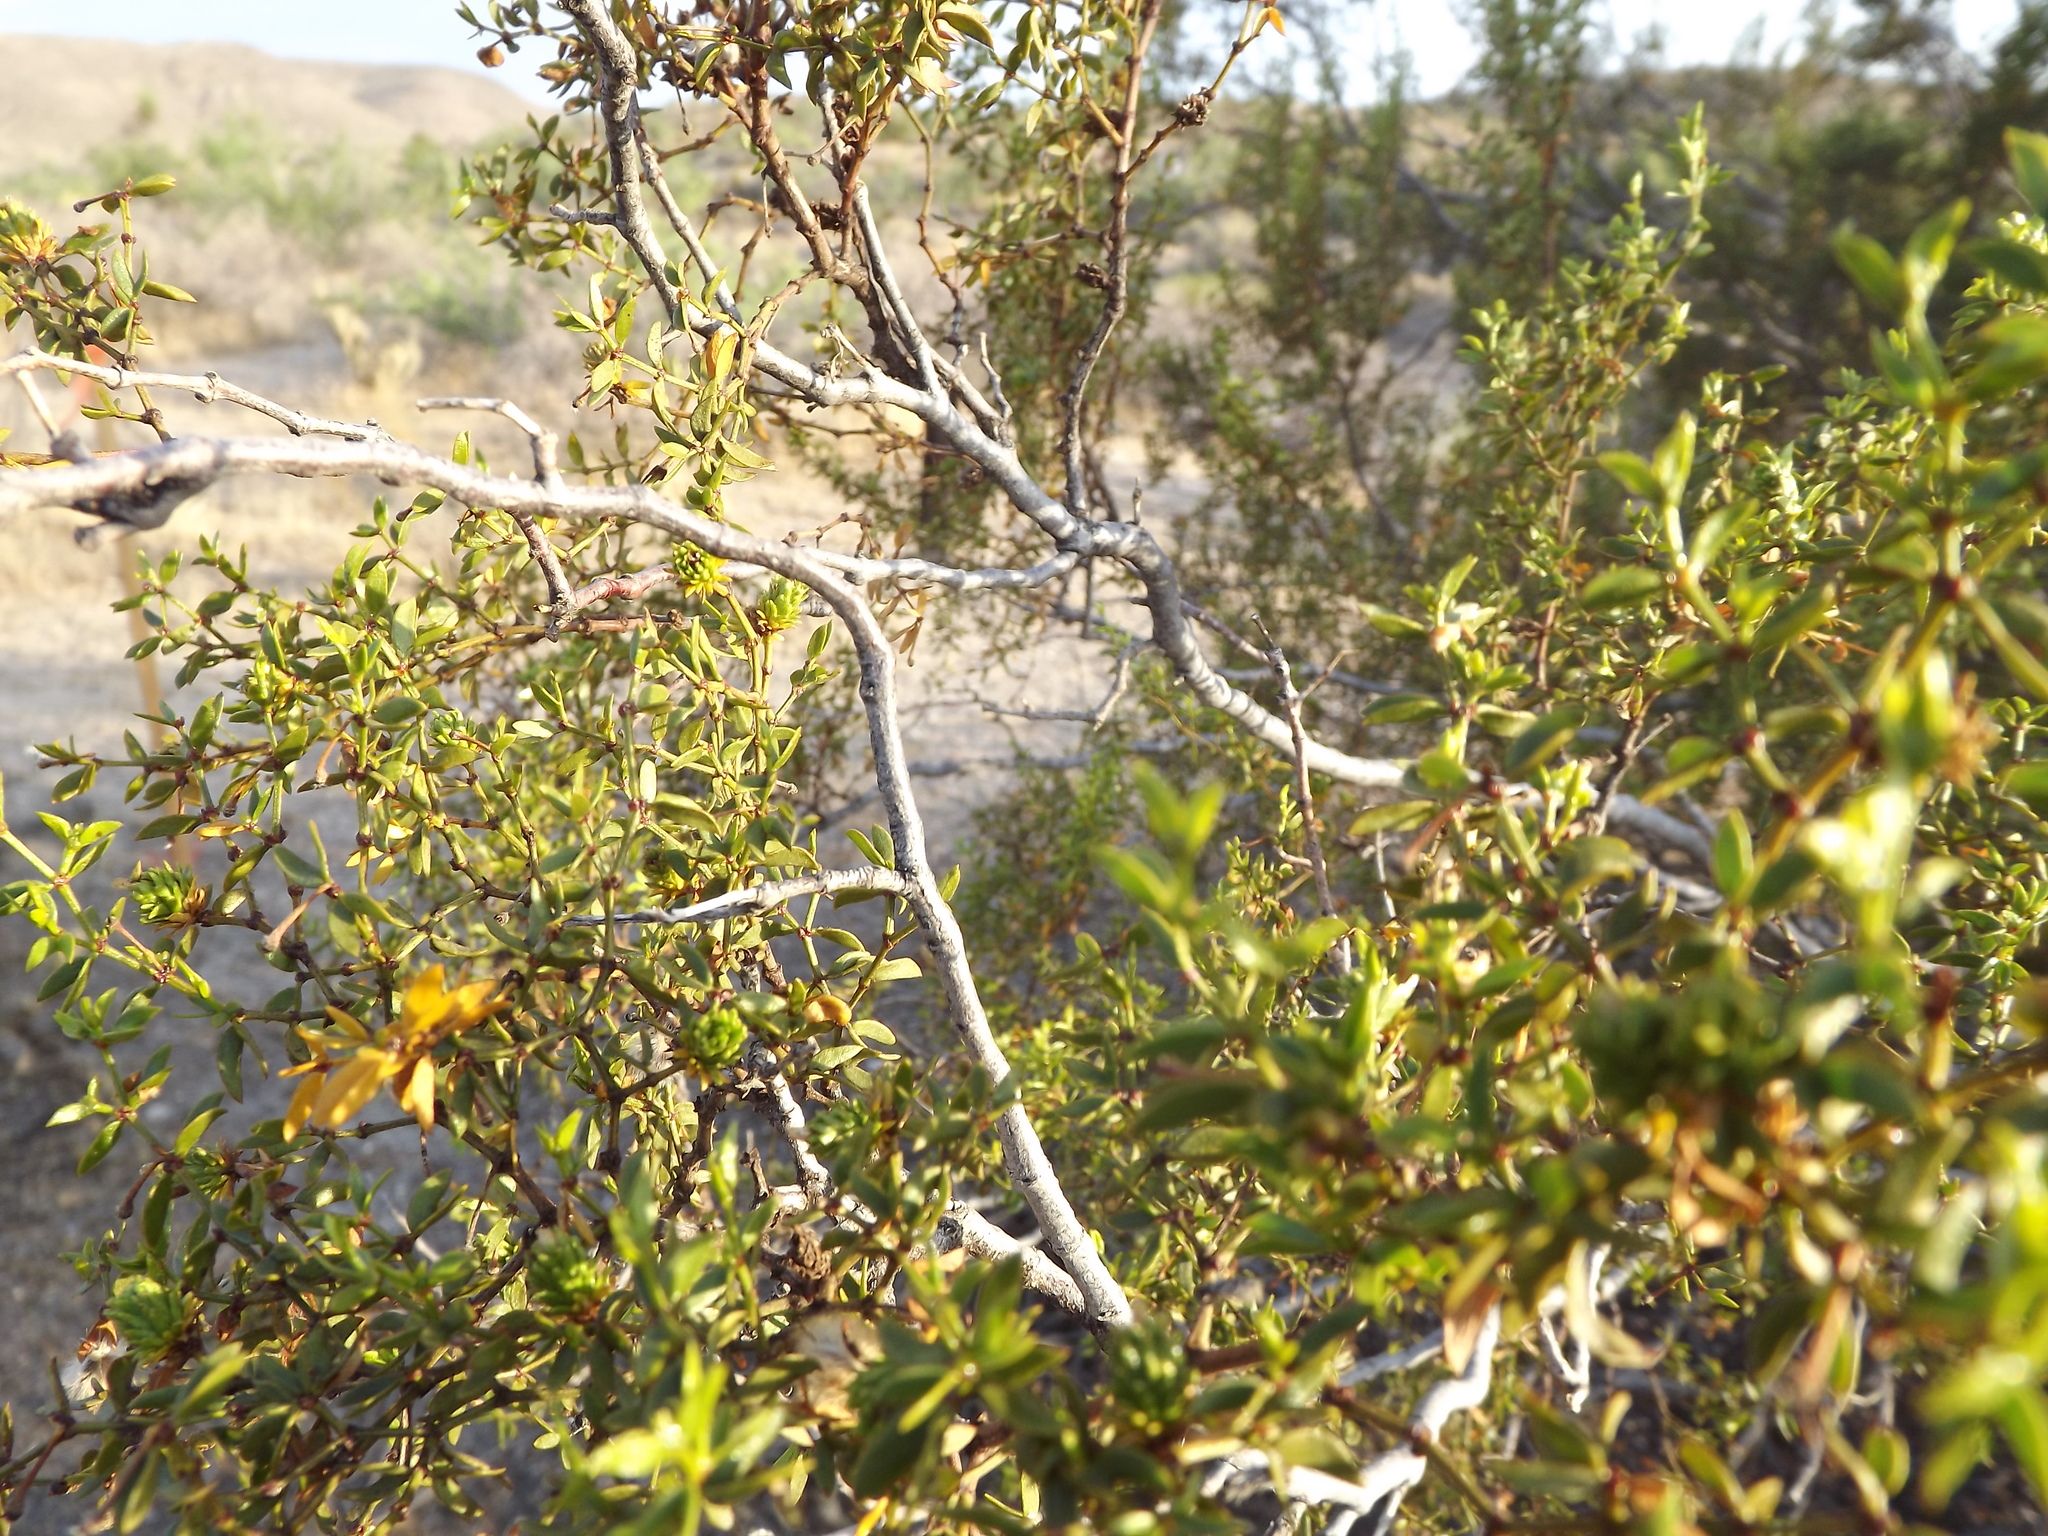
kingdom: Plantae
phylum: Tracheophyta
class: Magnoliopsida
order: Zygophyllales
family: Zygophyllaceae
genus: Larrea
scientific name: Larrea tridentata
